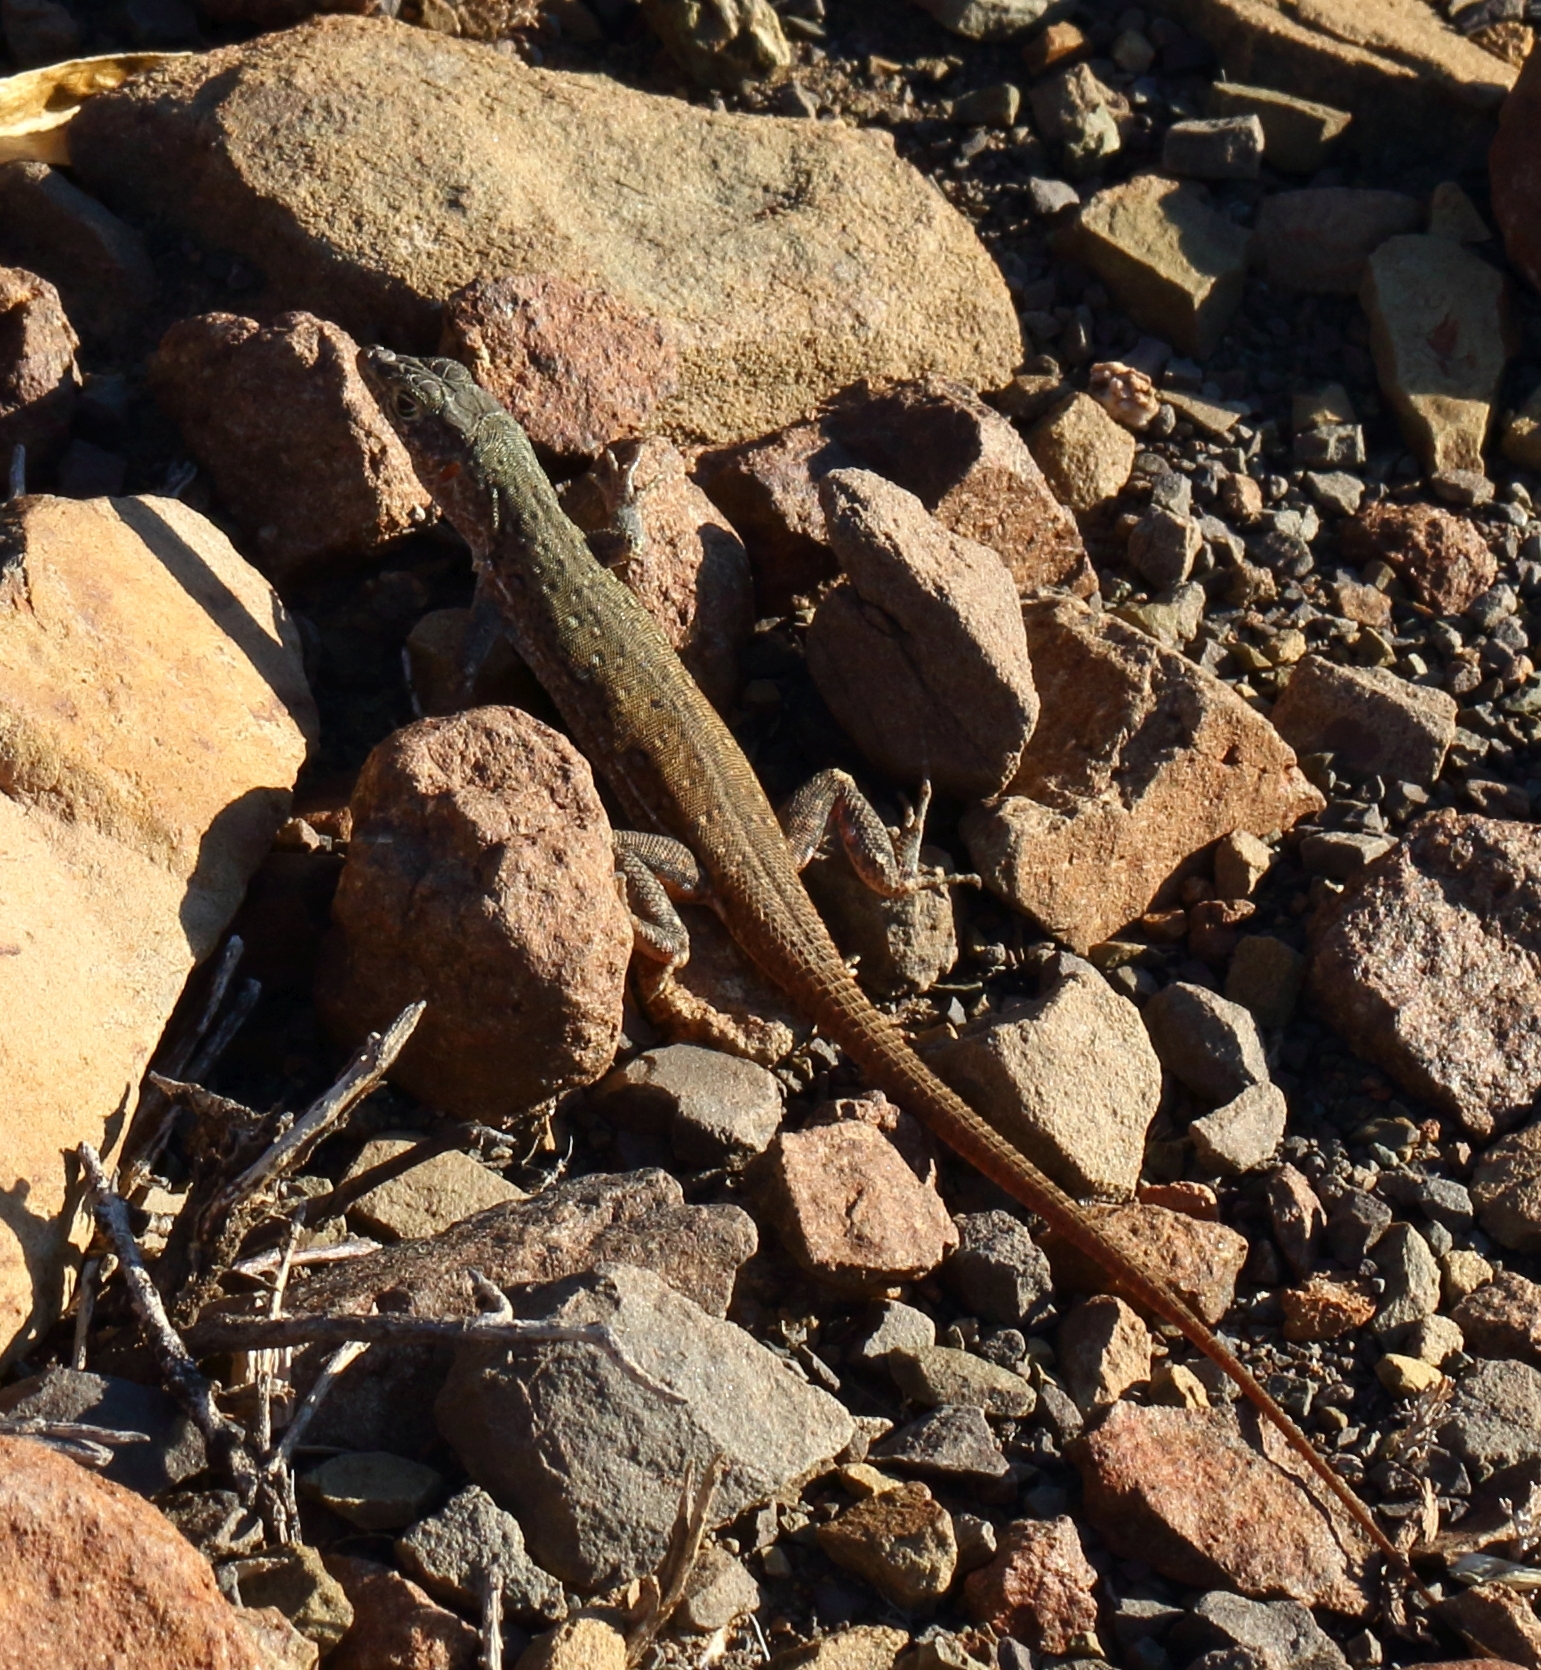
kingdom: Animalia
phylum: Chordata
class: Squamata
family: Lacertidae
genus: Pedioplanis
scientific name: Pedioplanis lineoocellata
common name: Spotted sand lizard
